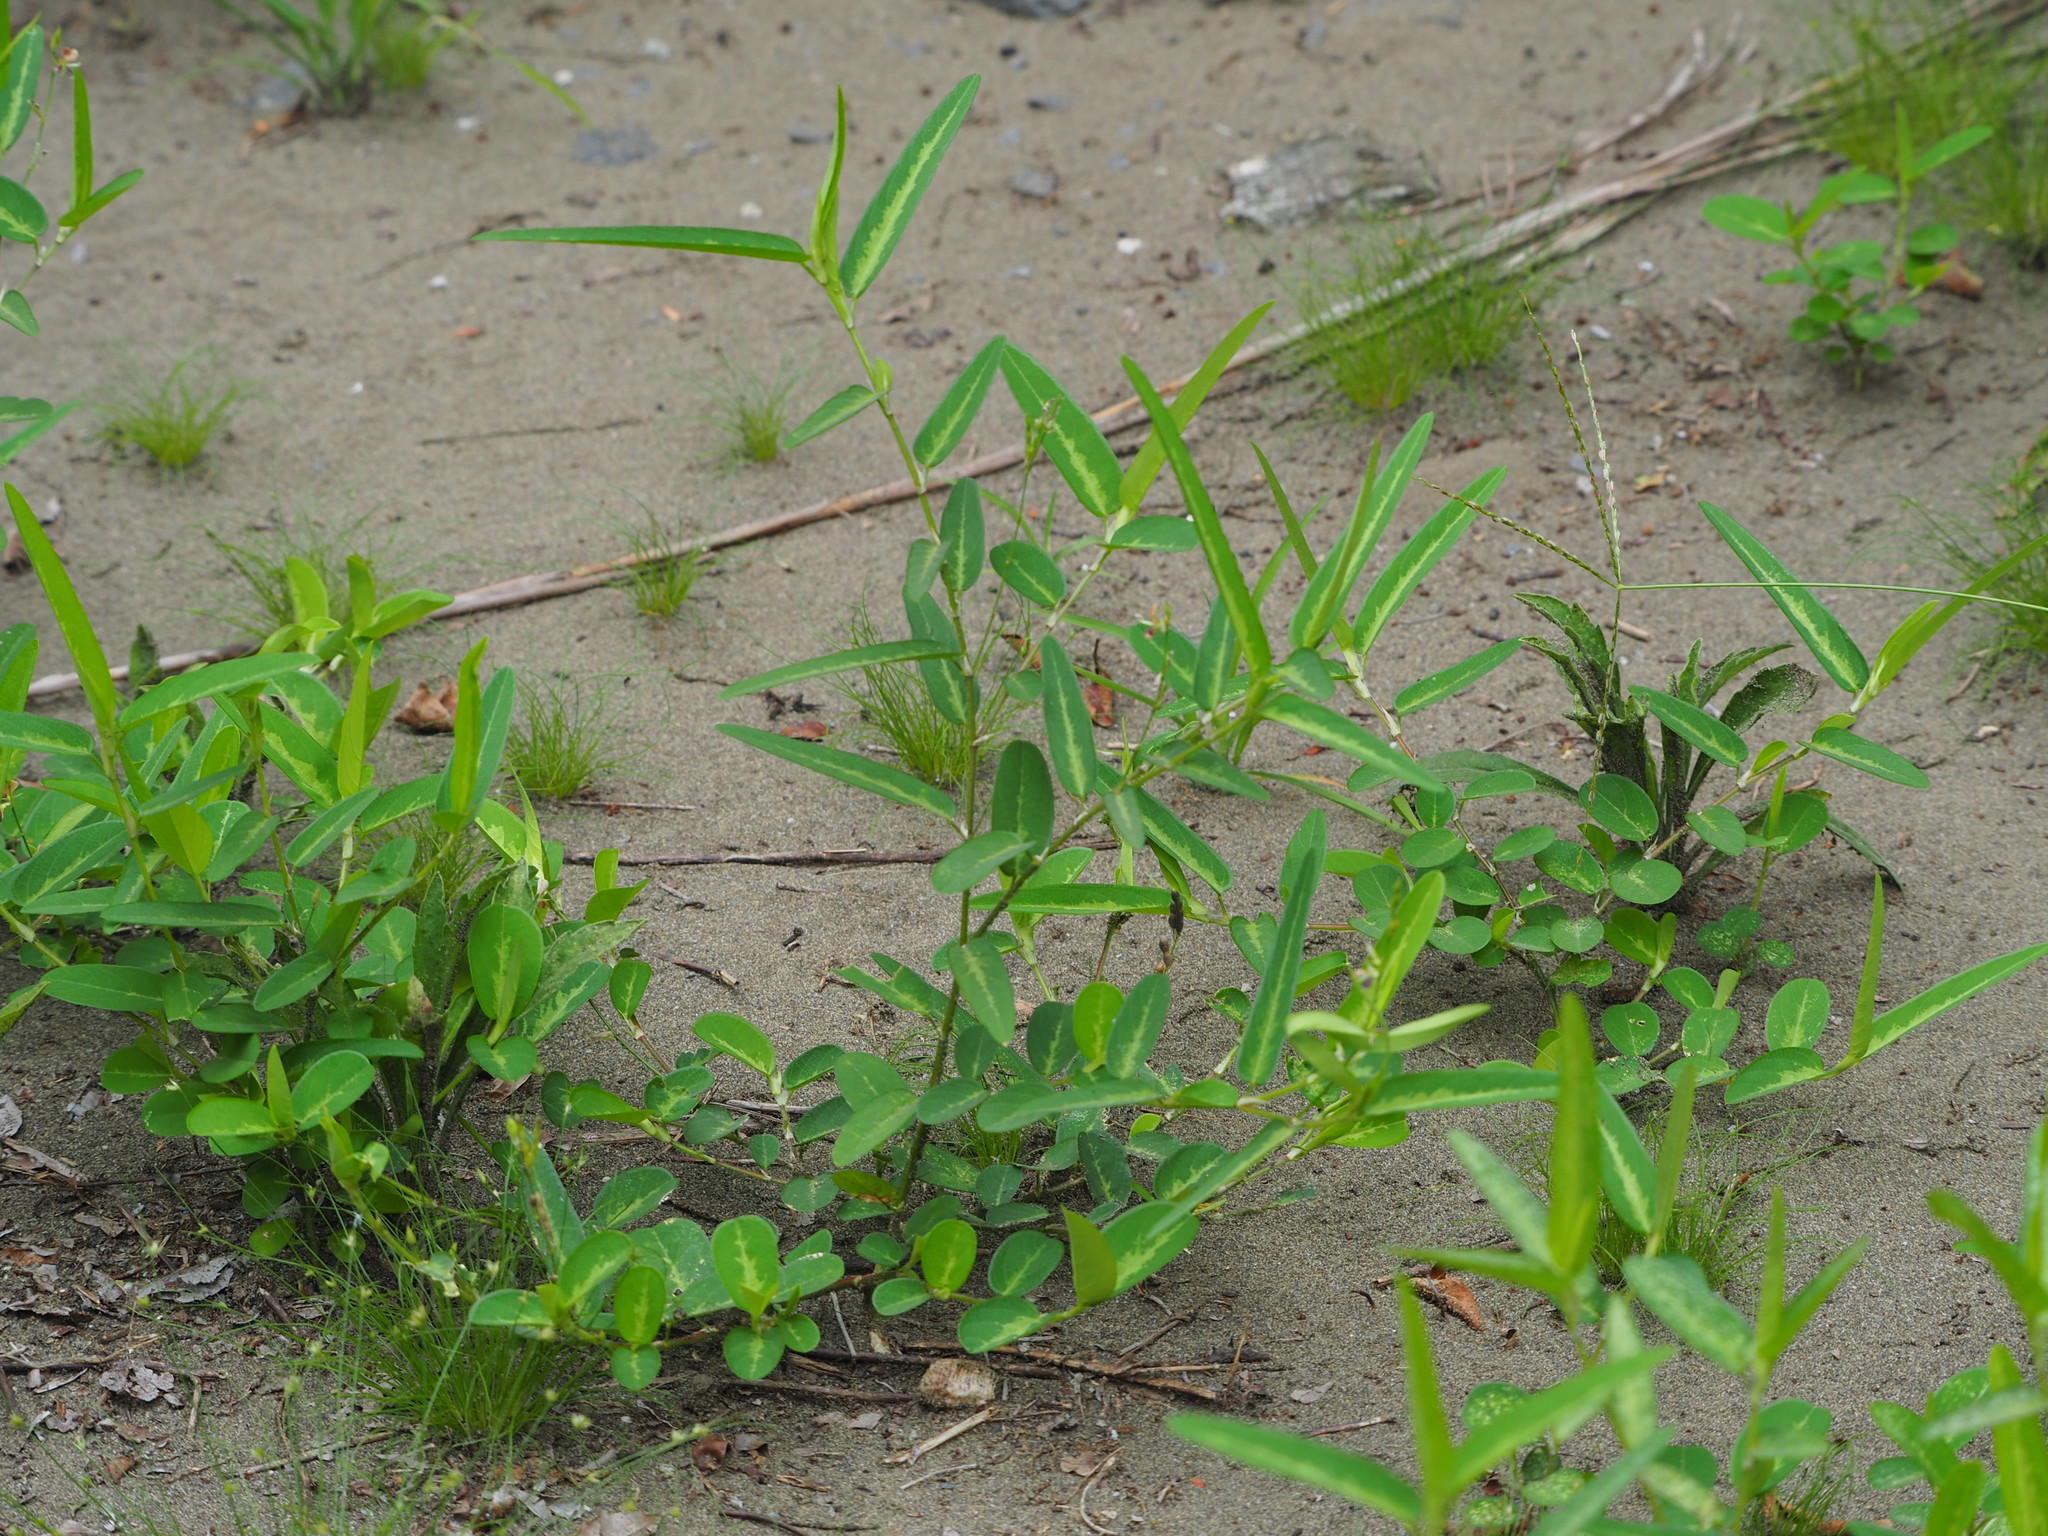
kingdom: Plantae
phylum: Tracheophyta
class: Magnoliopsida
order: Fabales
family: Fabaceae
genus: Alysicarpus
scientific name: Alysicarpus ovalifolius
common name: Alyce clover
